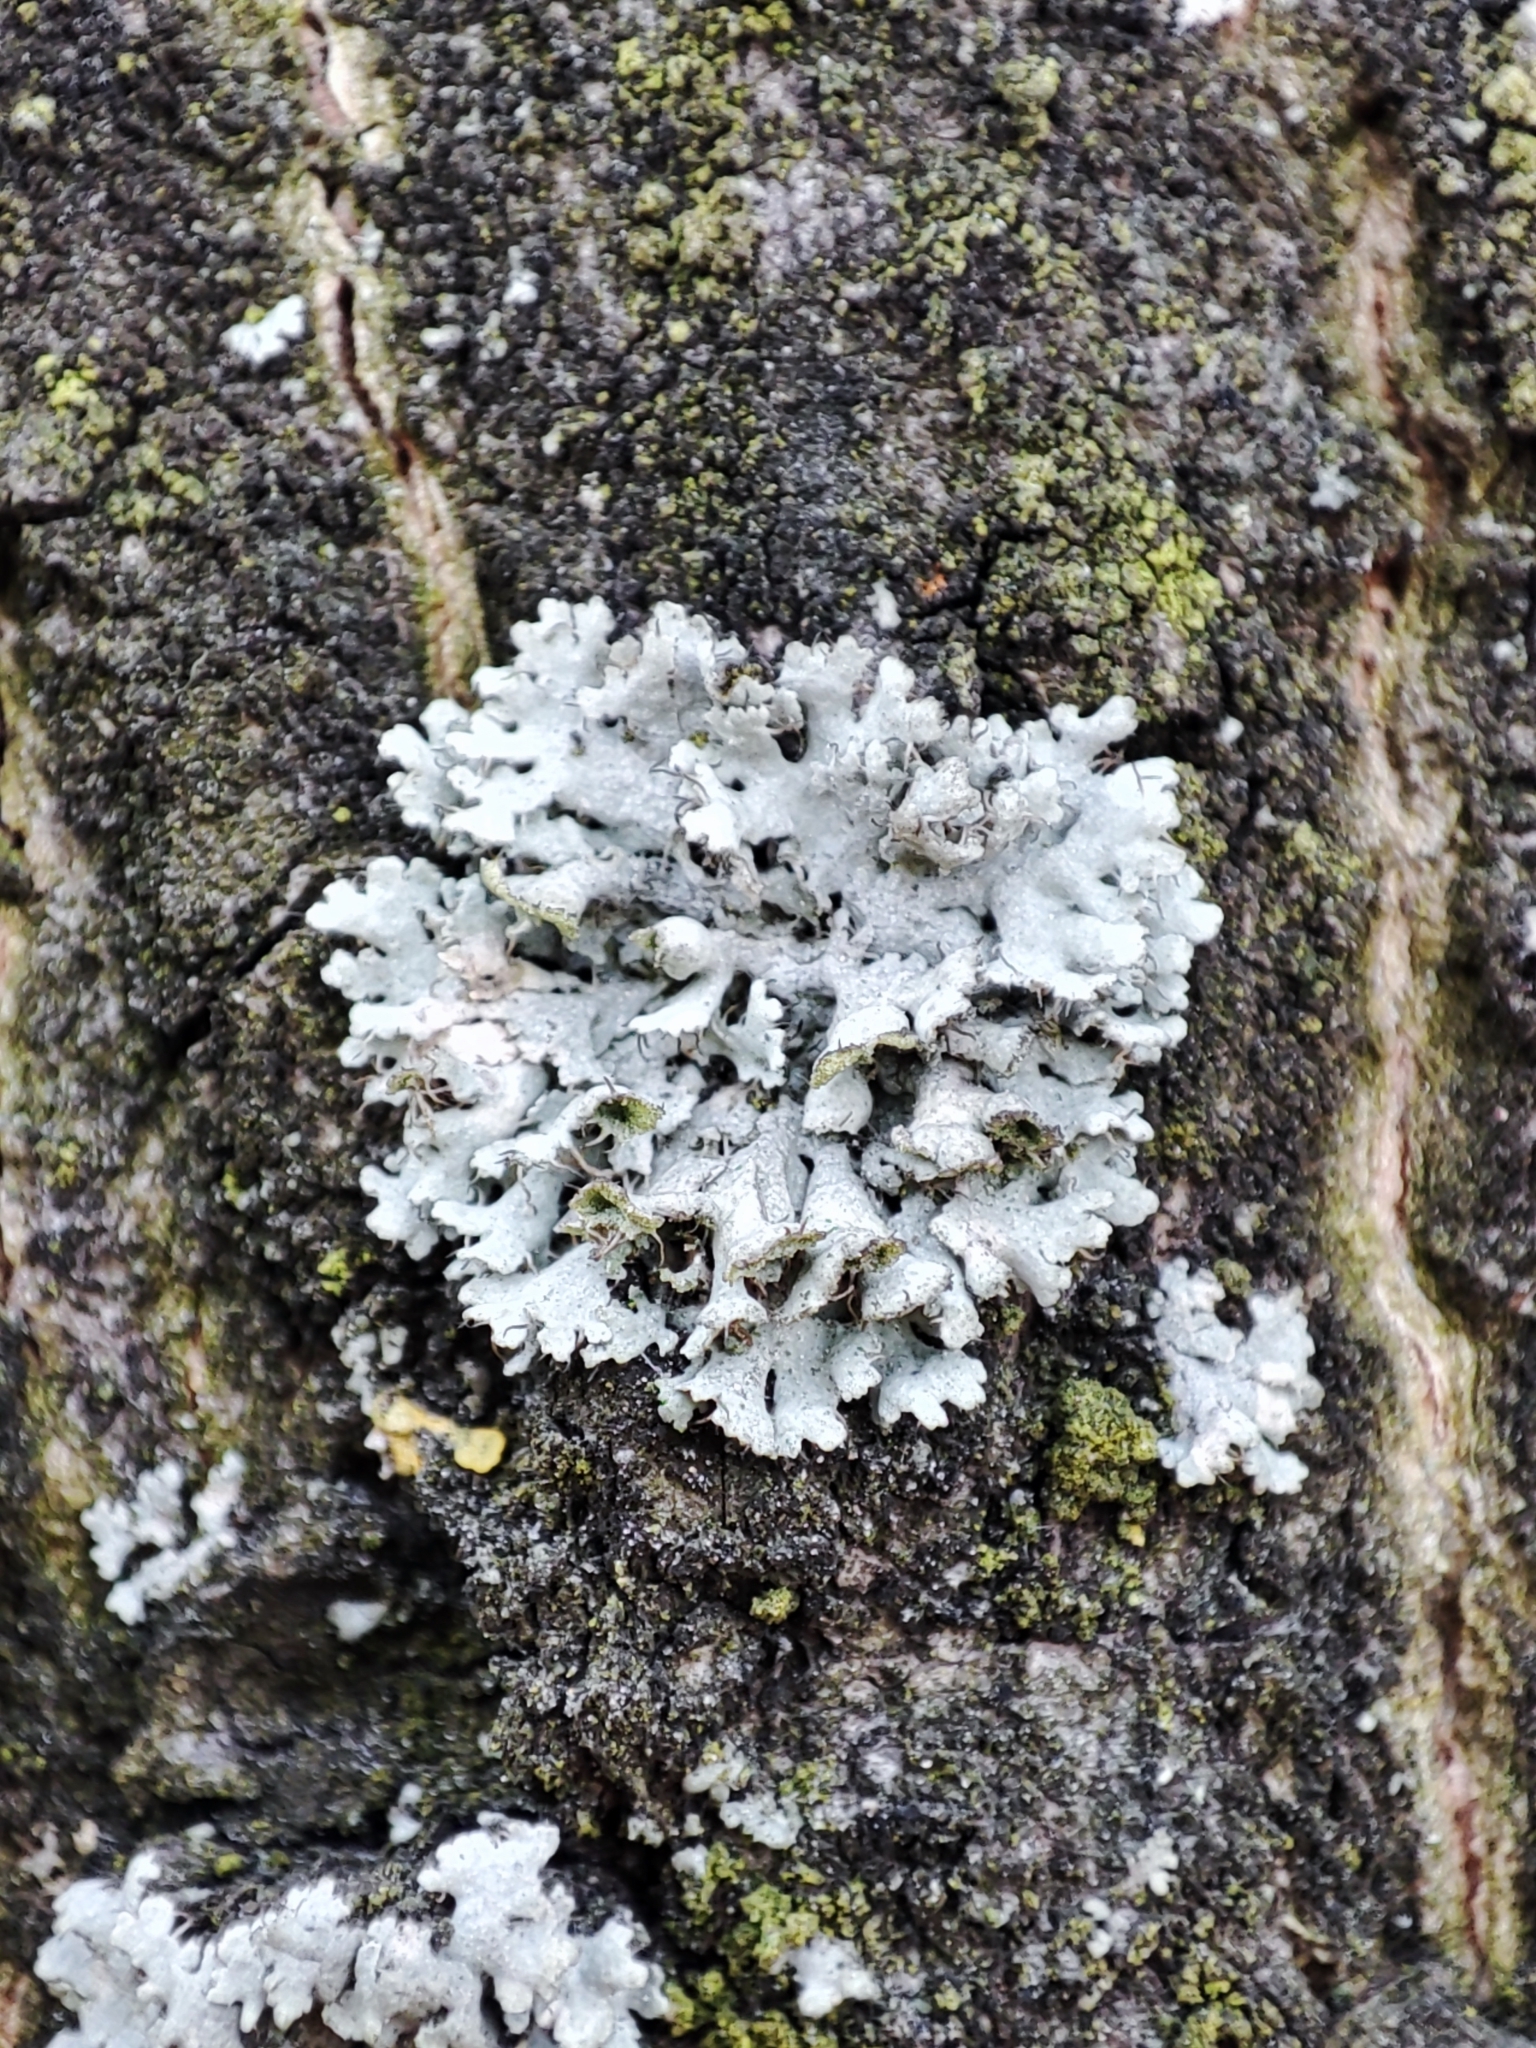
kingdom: Fungi
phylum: Ascomycota
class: Lecanoromycetes
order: Caliciales
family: Physciaceae
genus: Physcia
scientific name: Physcia adscendens
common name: Hooded rosette lichen
